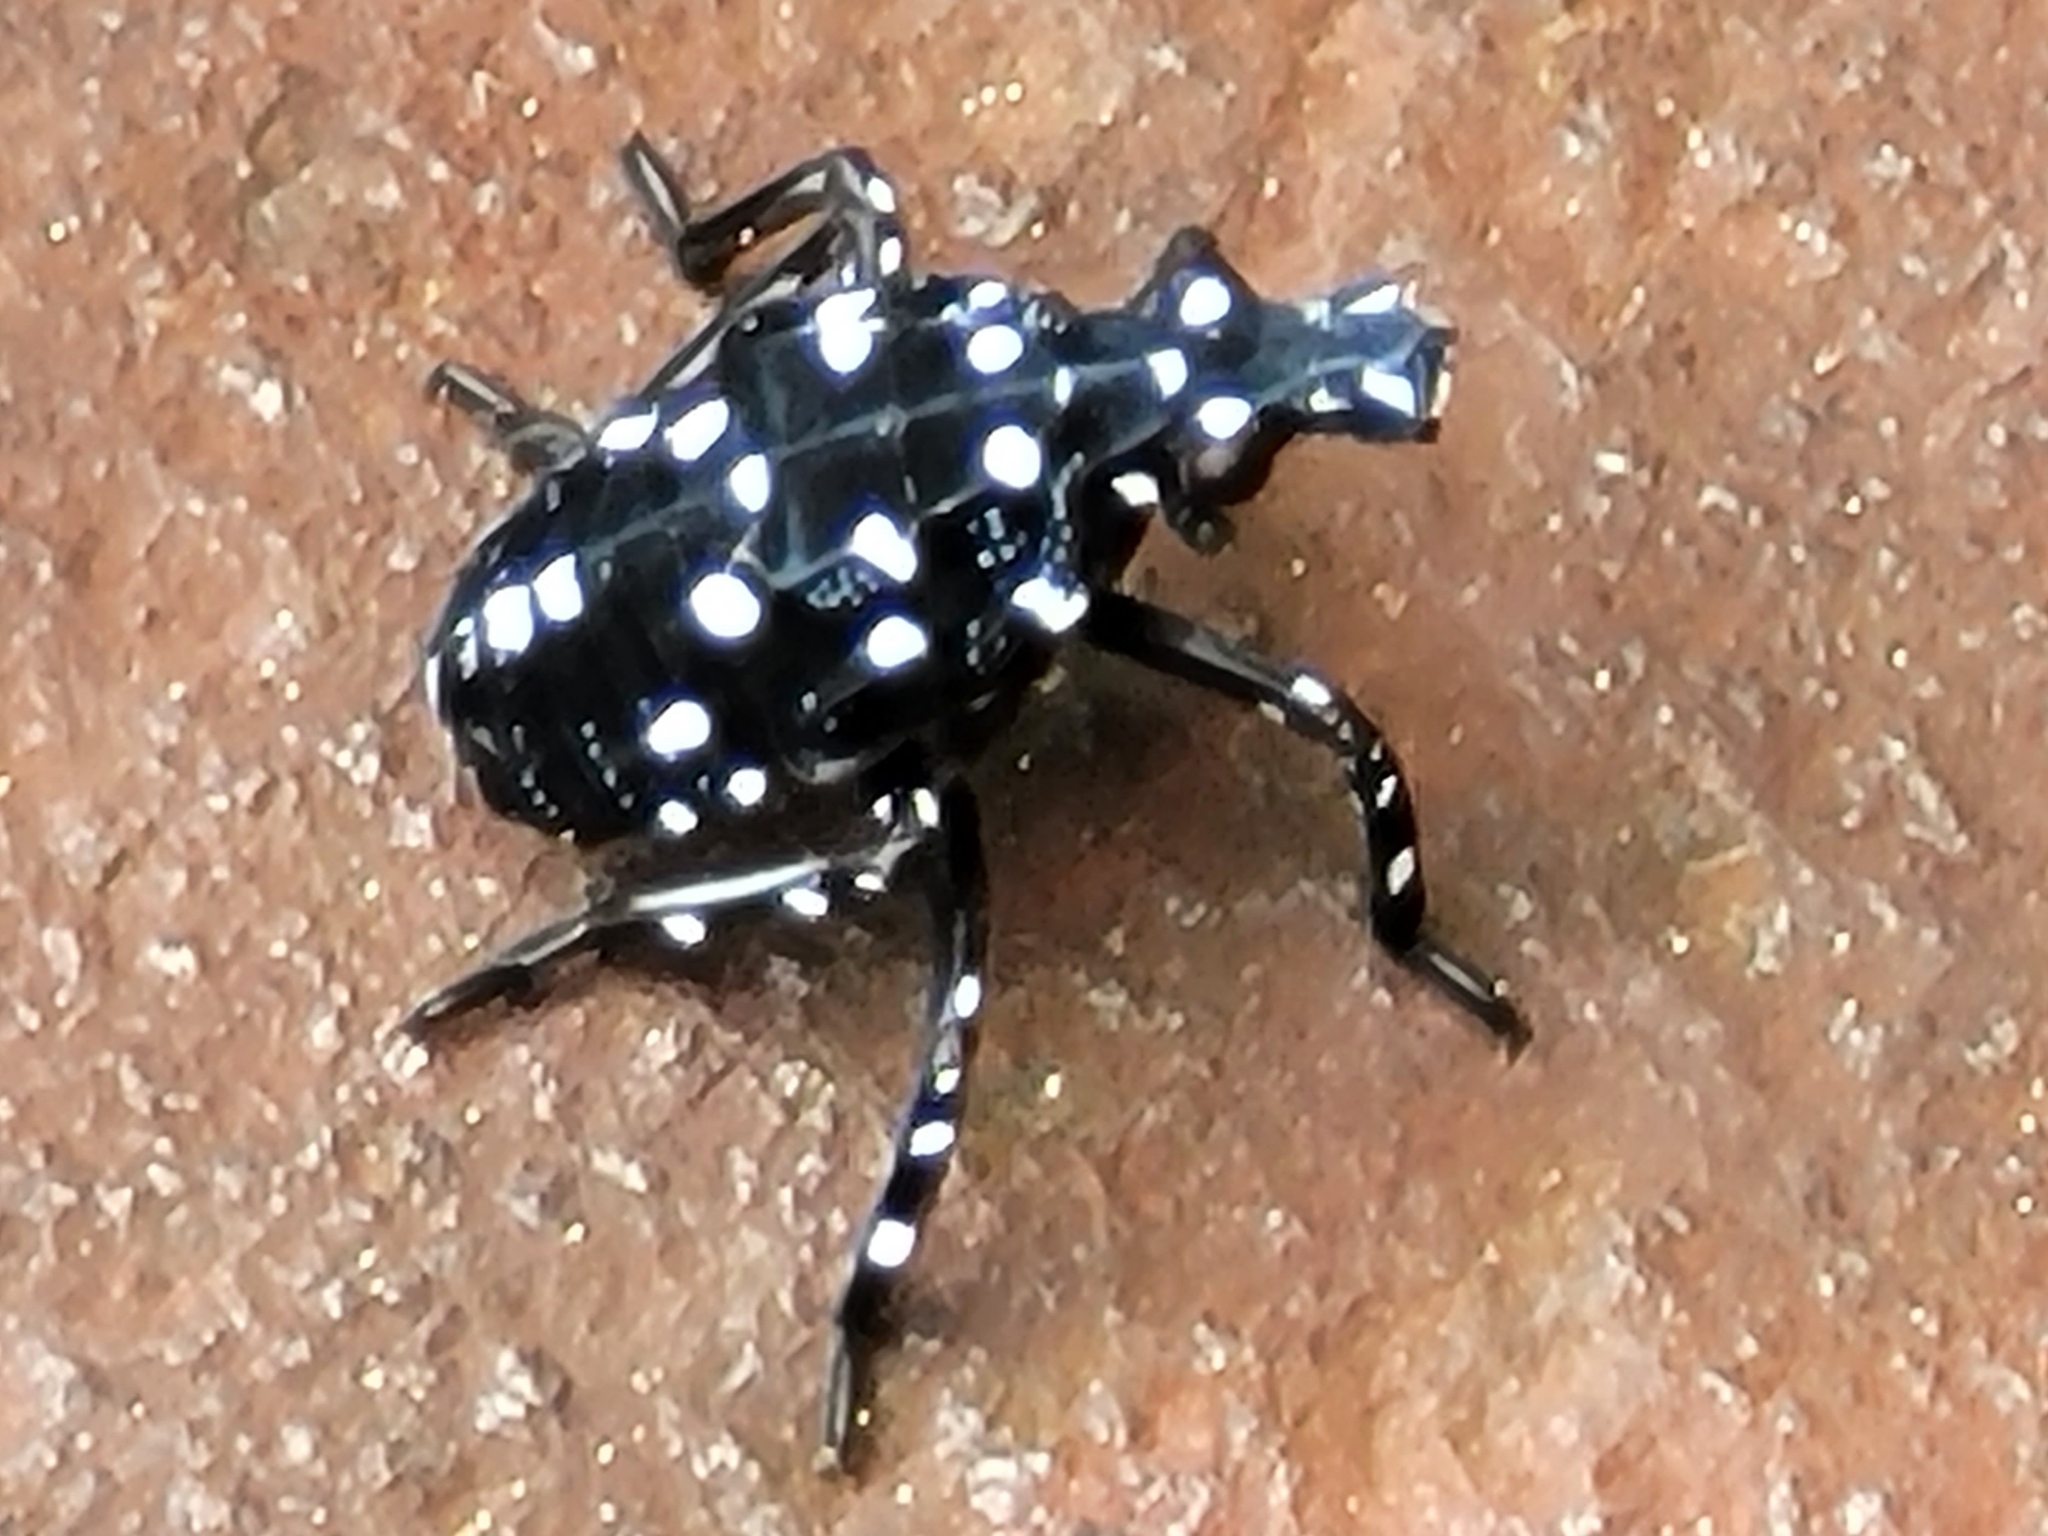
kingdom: Animalia
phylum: Arthropoda
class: Insecta
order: Hemiptera
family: Fulgoridae
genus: Lycorma
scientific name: Lycorma delicatula
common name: Spotted lanternfly
